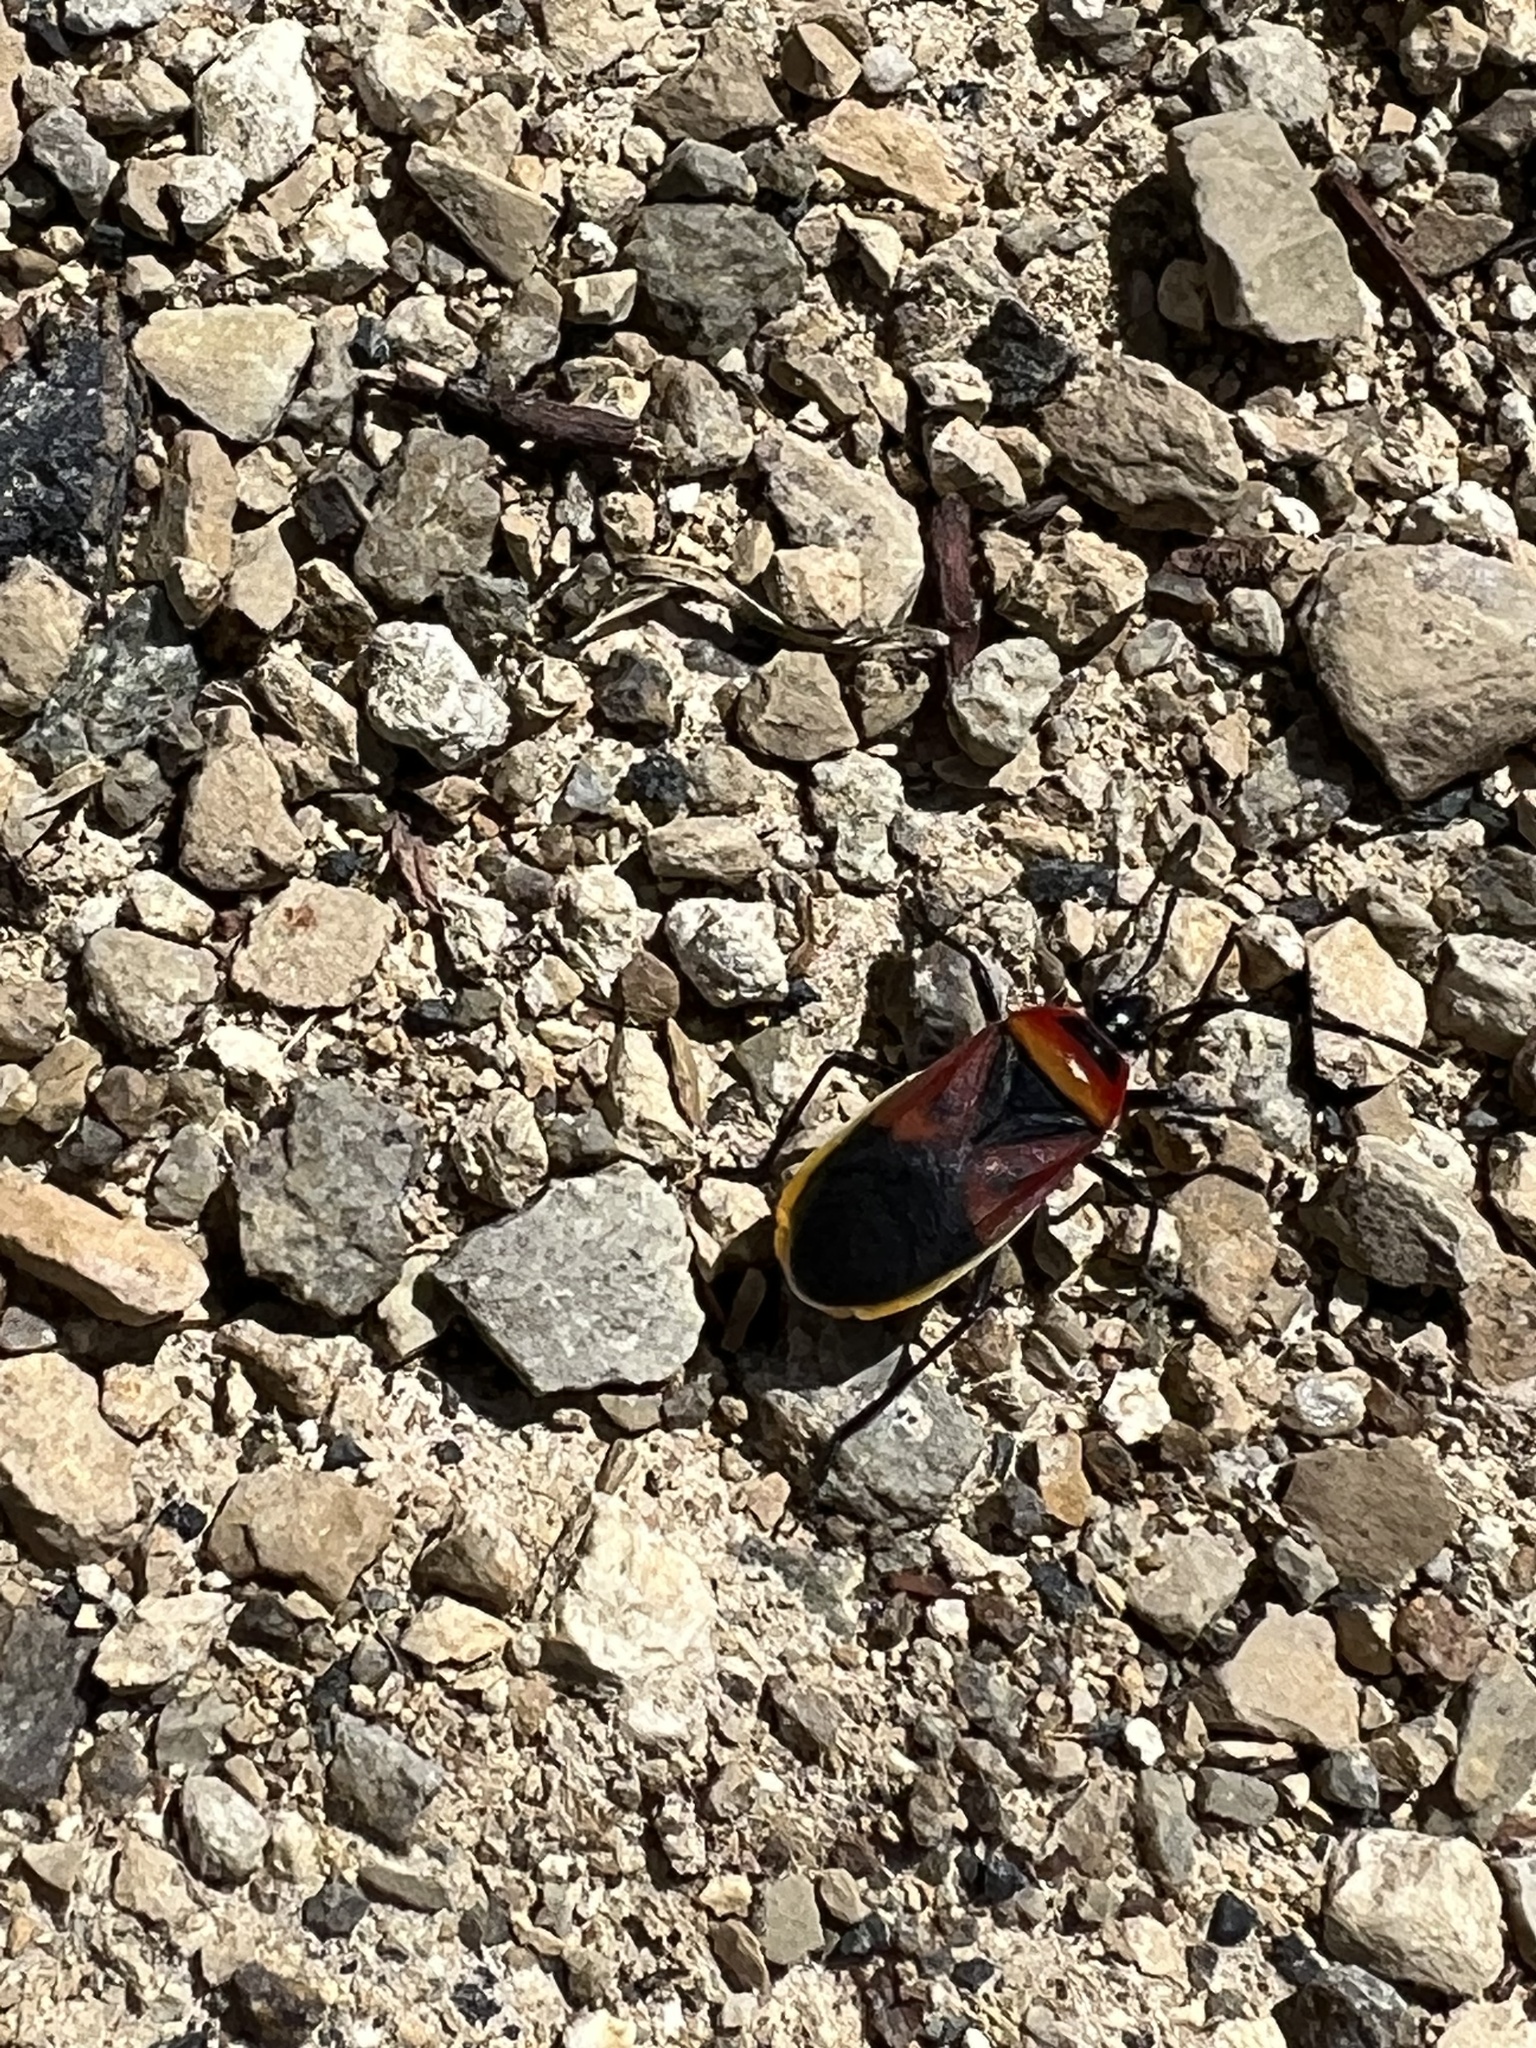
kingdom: Animalia
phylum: Arthropoda
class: Insecta
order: Hemiptera
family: Pyrrhocoridae
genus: Dindymus
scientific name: Dindymus
